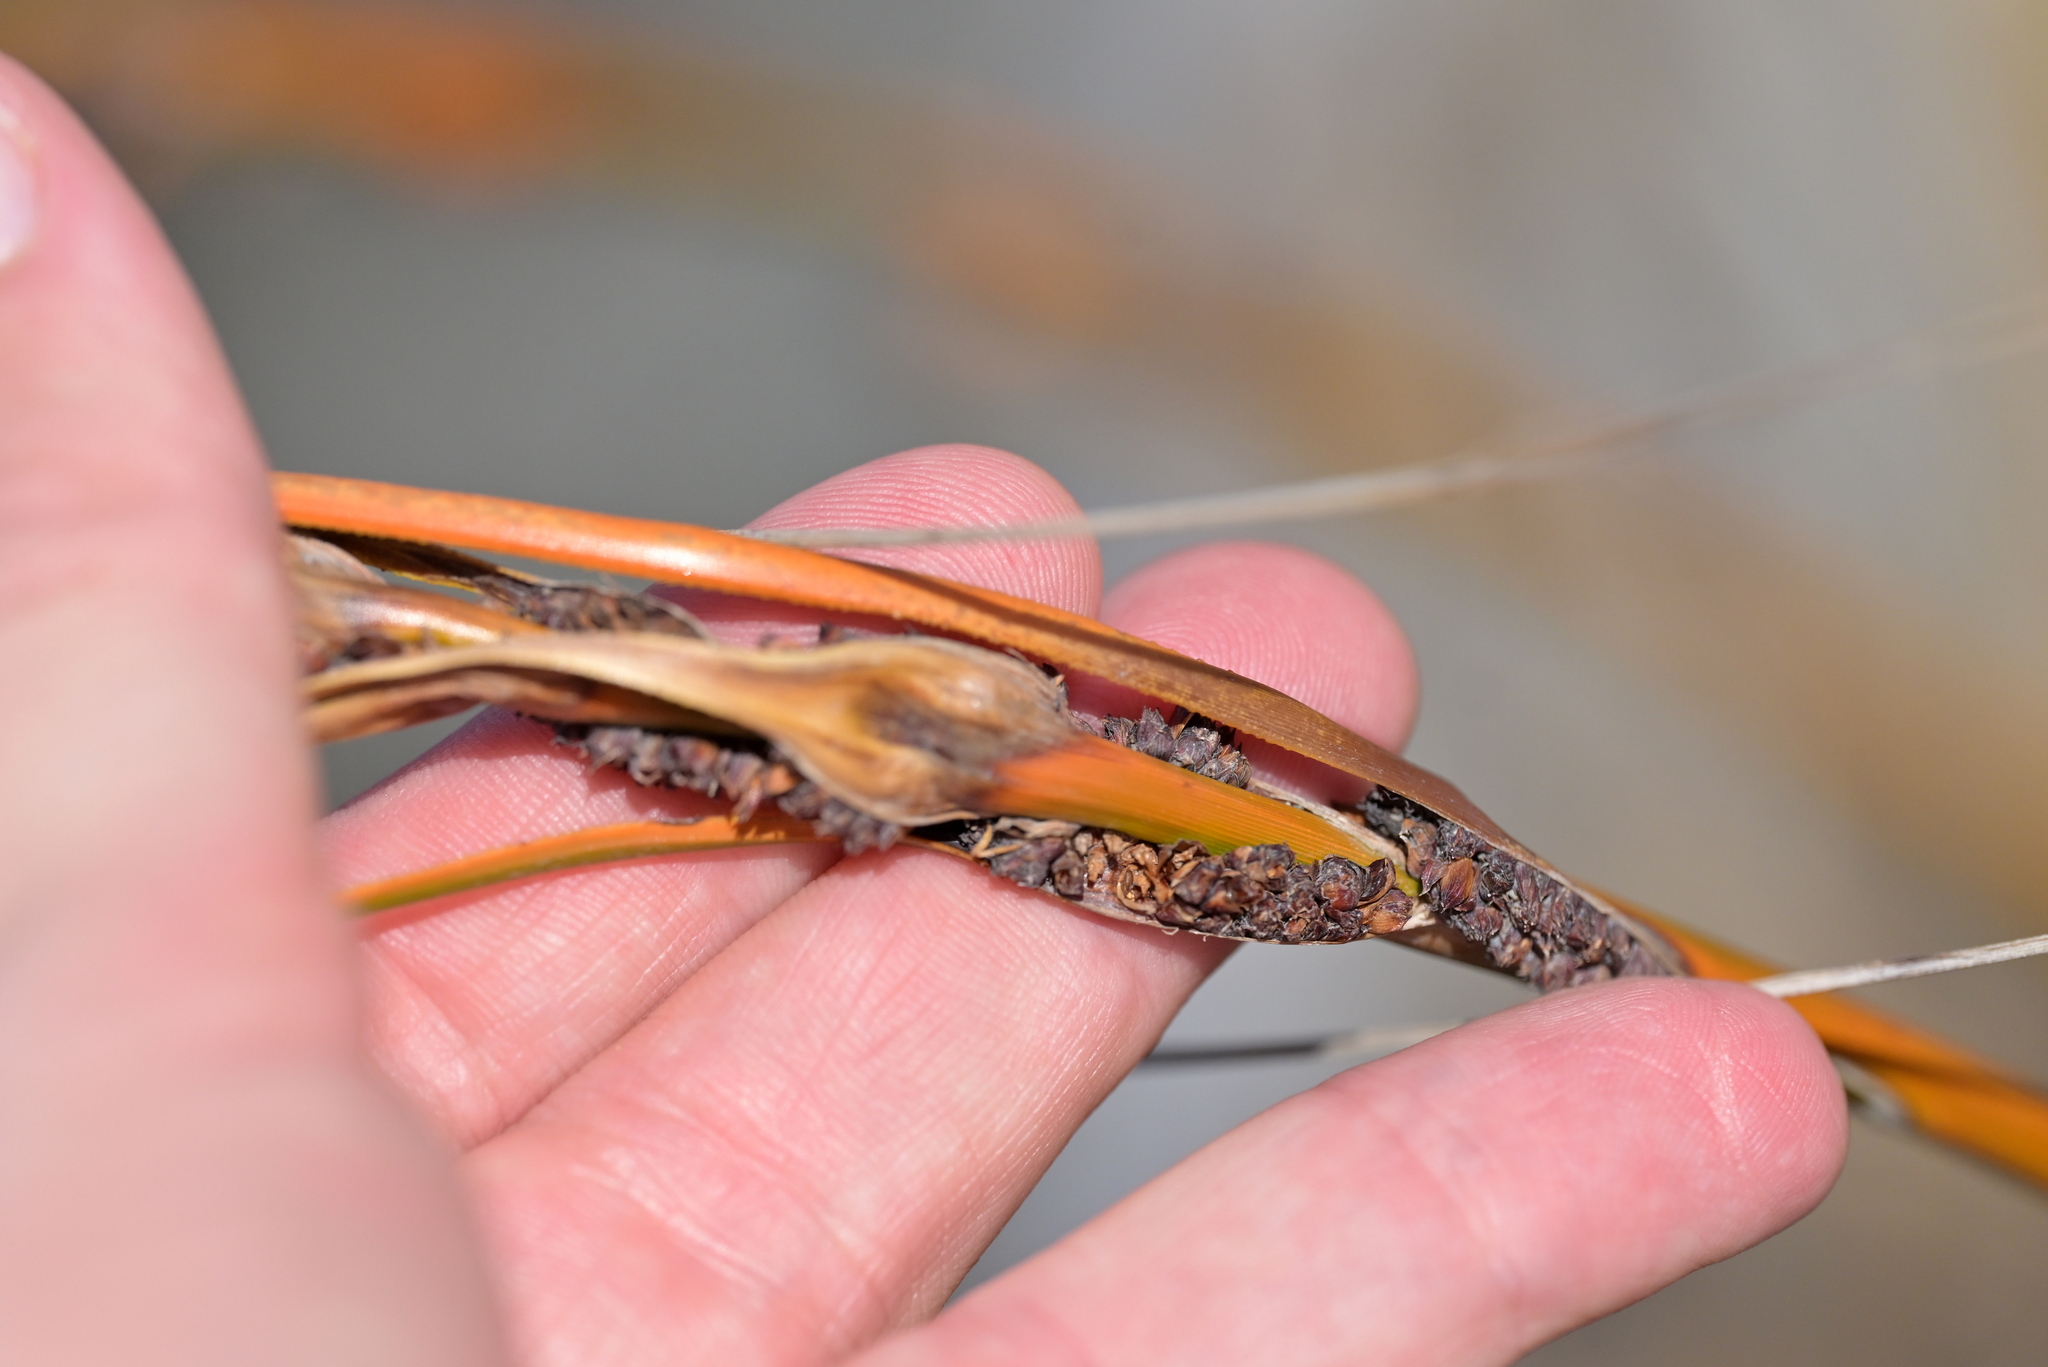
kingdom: Plantae
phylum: Tracheophyta
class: Liliopsida
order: Poales
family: Cyperaceae
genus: Ficinia
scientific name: Ficinia spiralis
